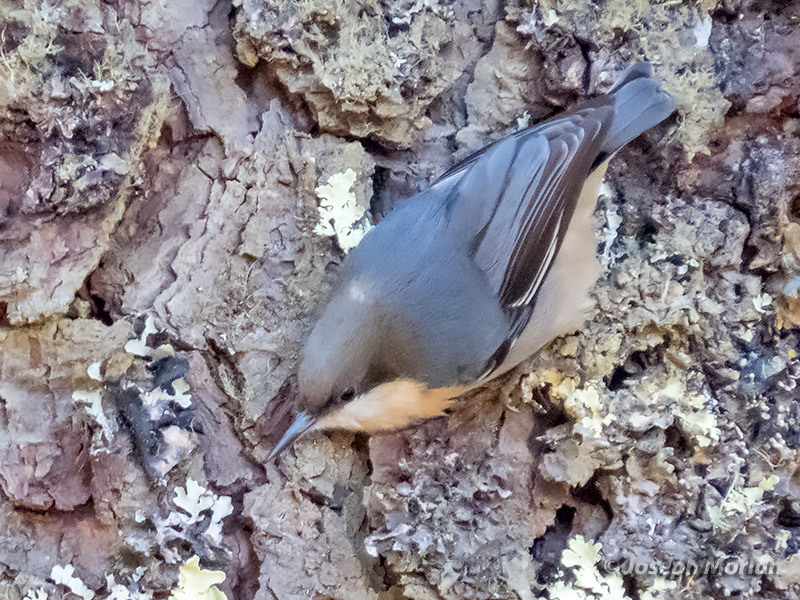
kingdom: Animalia
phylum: Chordata
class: Aves
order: Passeriformes
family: Sittidae
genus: Sitta
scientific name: Sitta pygmaea
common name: Pygmy nuthatch
